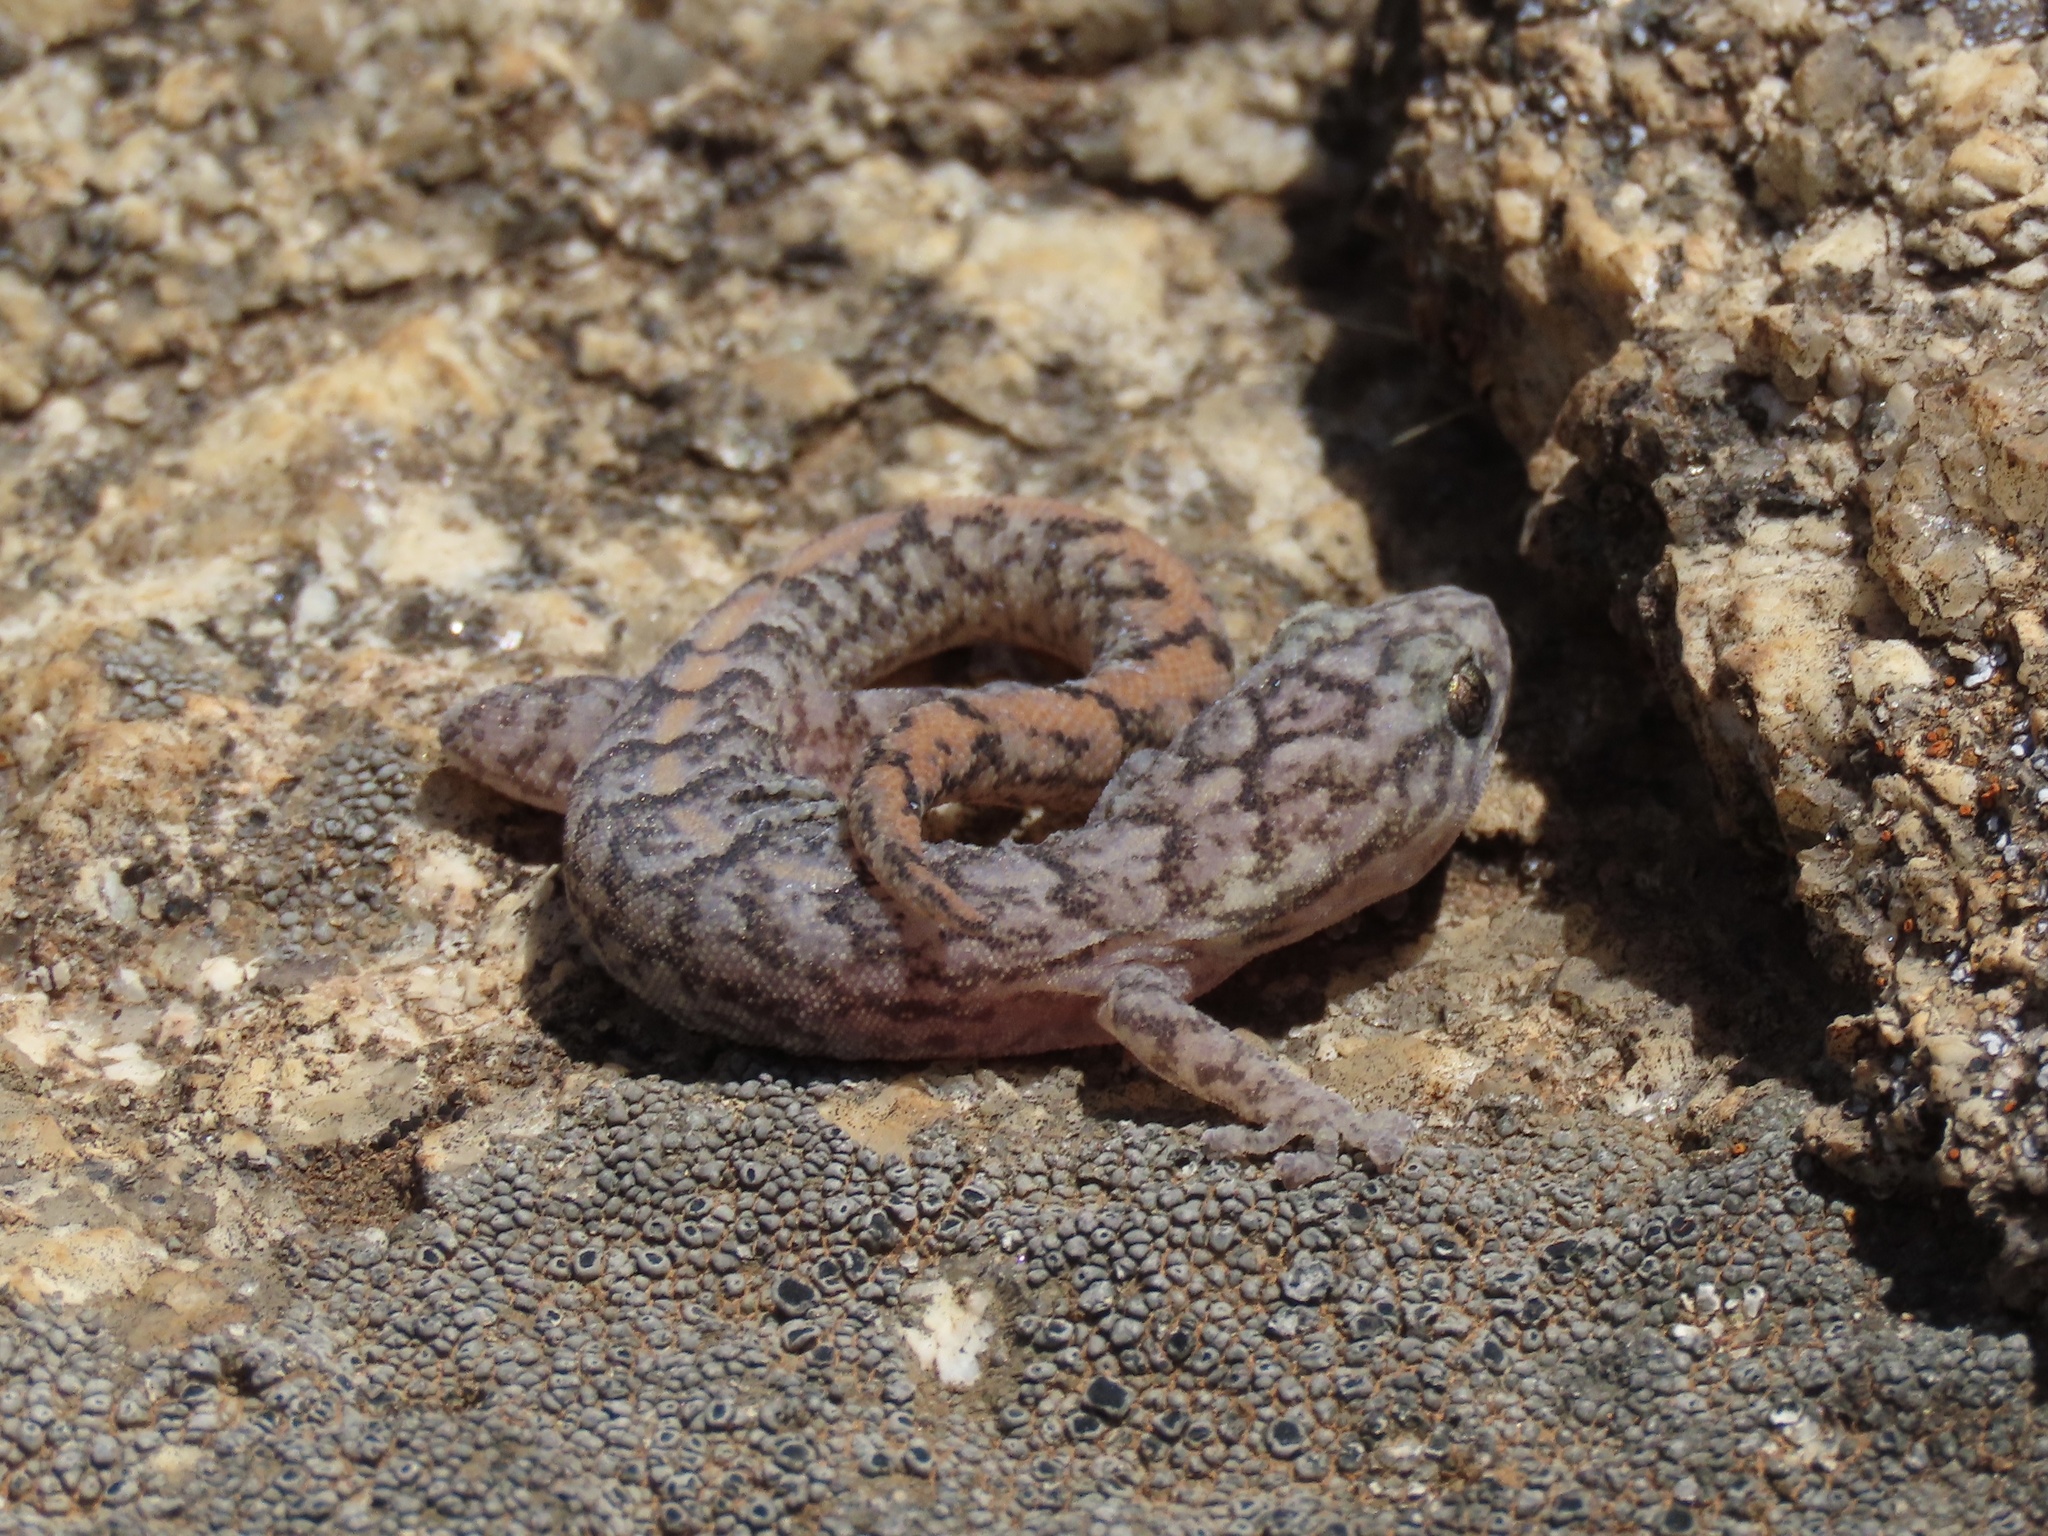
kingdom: Animalia
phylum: Chordata
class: Squamata
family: Gekkonidae
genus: Christinus
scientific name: Christinus marmoratus
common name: Marbled gecko
